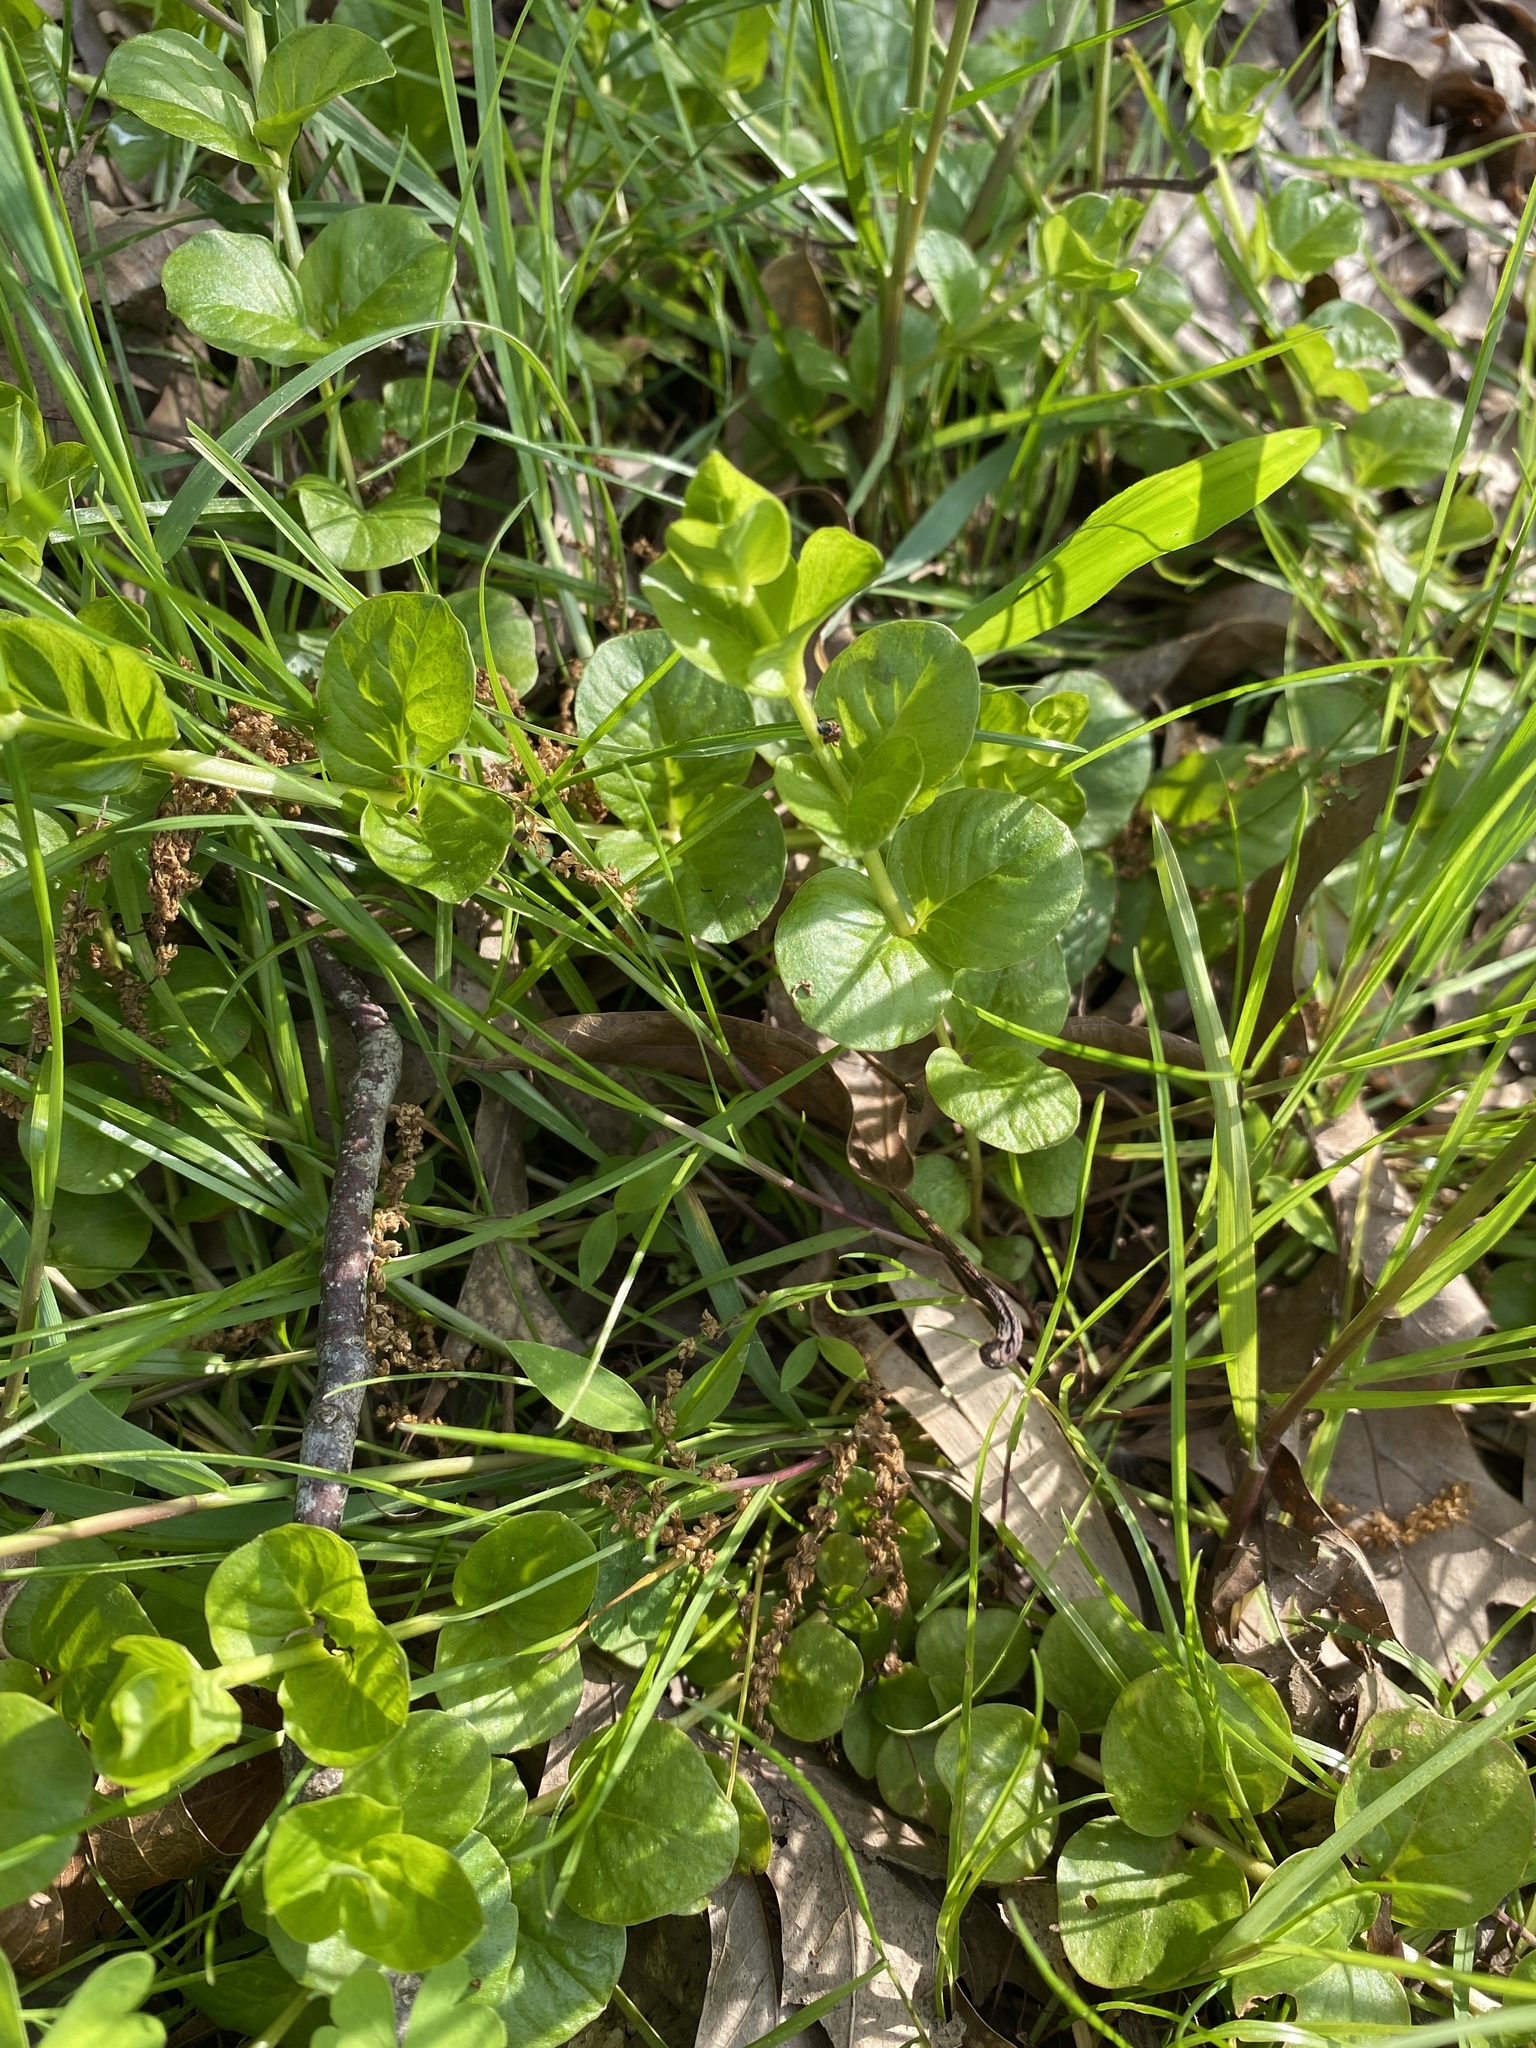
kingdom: Plantae
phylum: Tracheophyta
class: Magnoliopsida
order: Ericales
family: Primulaceae
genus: Lysimachia
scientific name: Lysimachia nummularia
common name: Moneywort
